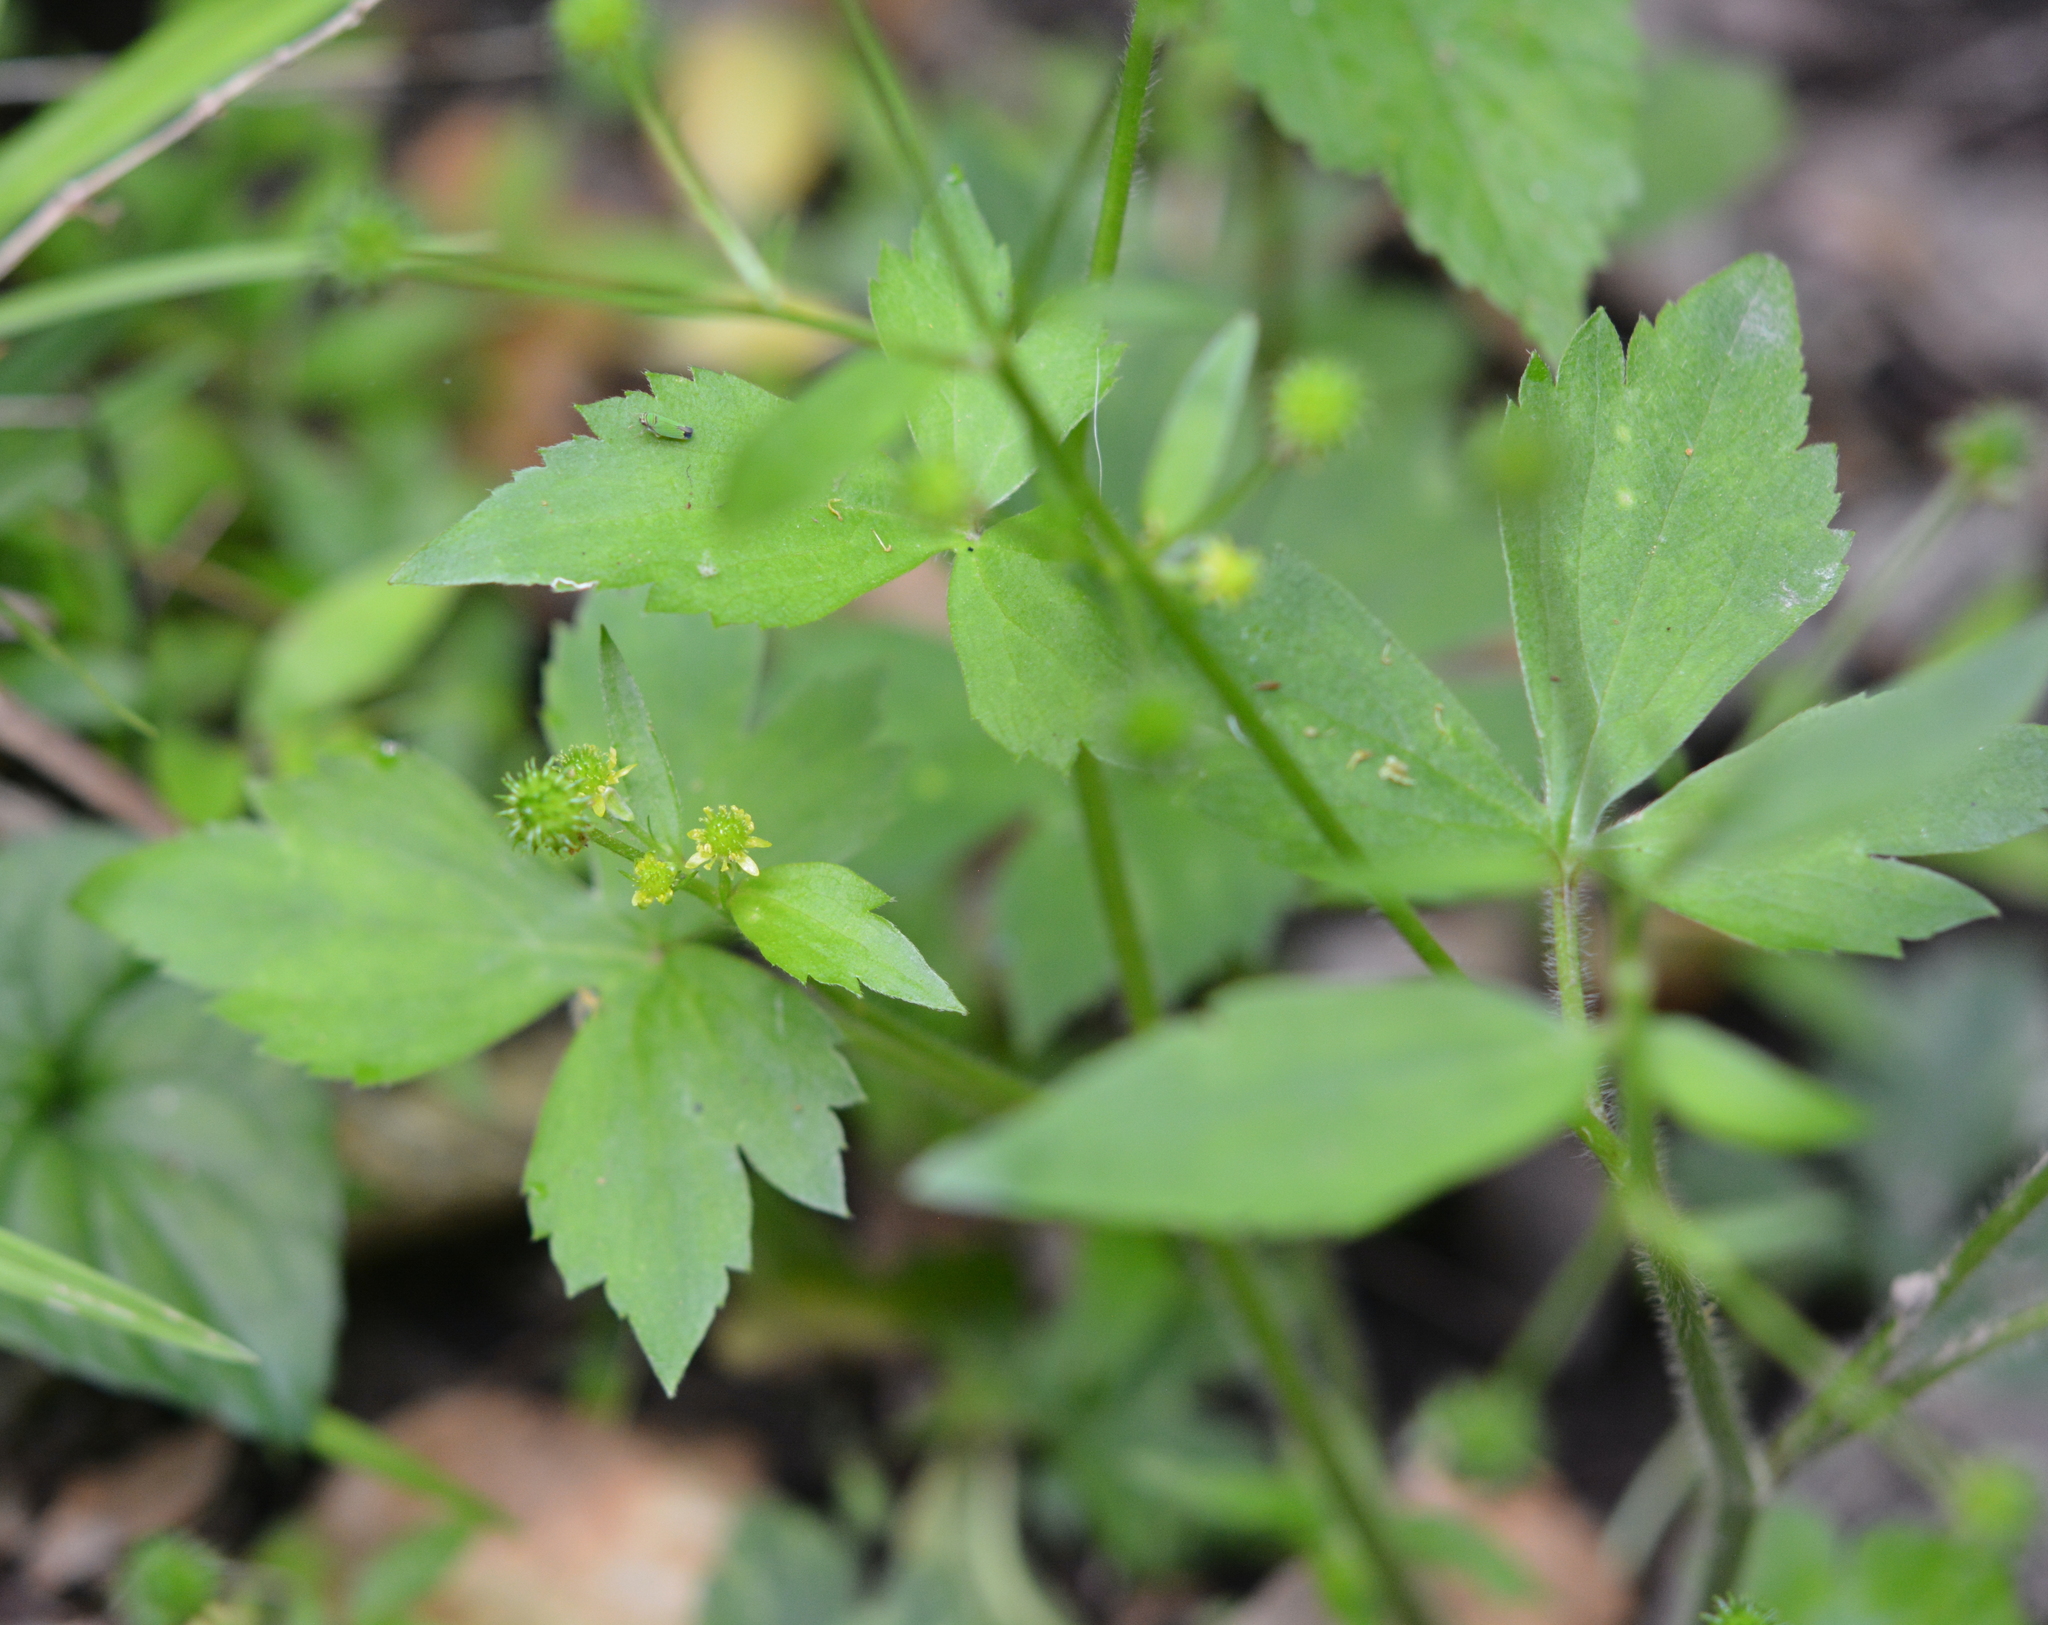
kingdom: Plantae
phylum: Tracheophyta
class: Magnoliopsida
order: Ranunculales
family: Ranunculaceae
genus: Ranunculus
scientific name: Ranunculus recurvatus
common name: Blisterwort
